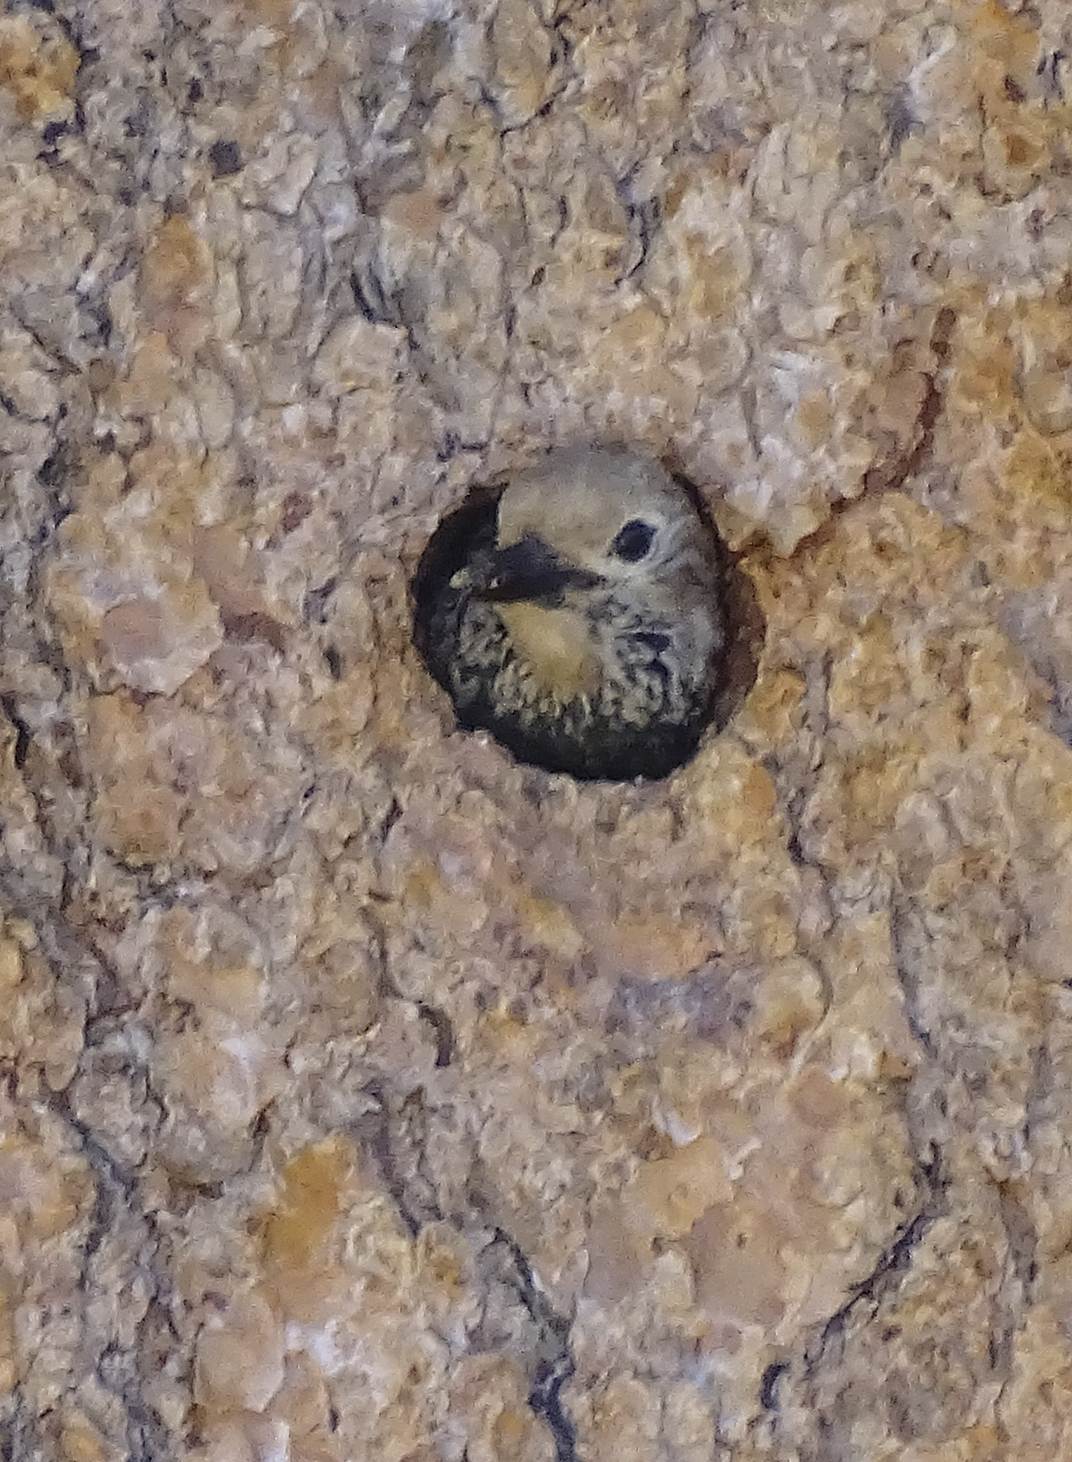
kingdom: Animalia
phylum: Chordata
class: Aves
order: Piciformes
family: Picidae
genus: Sphyrapicus
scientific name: Sphyrapicus thyroideus
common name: Williamson's sapsucker
